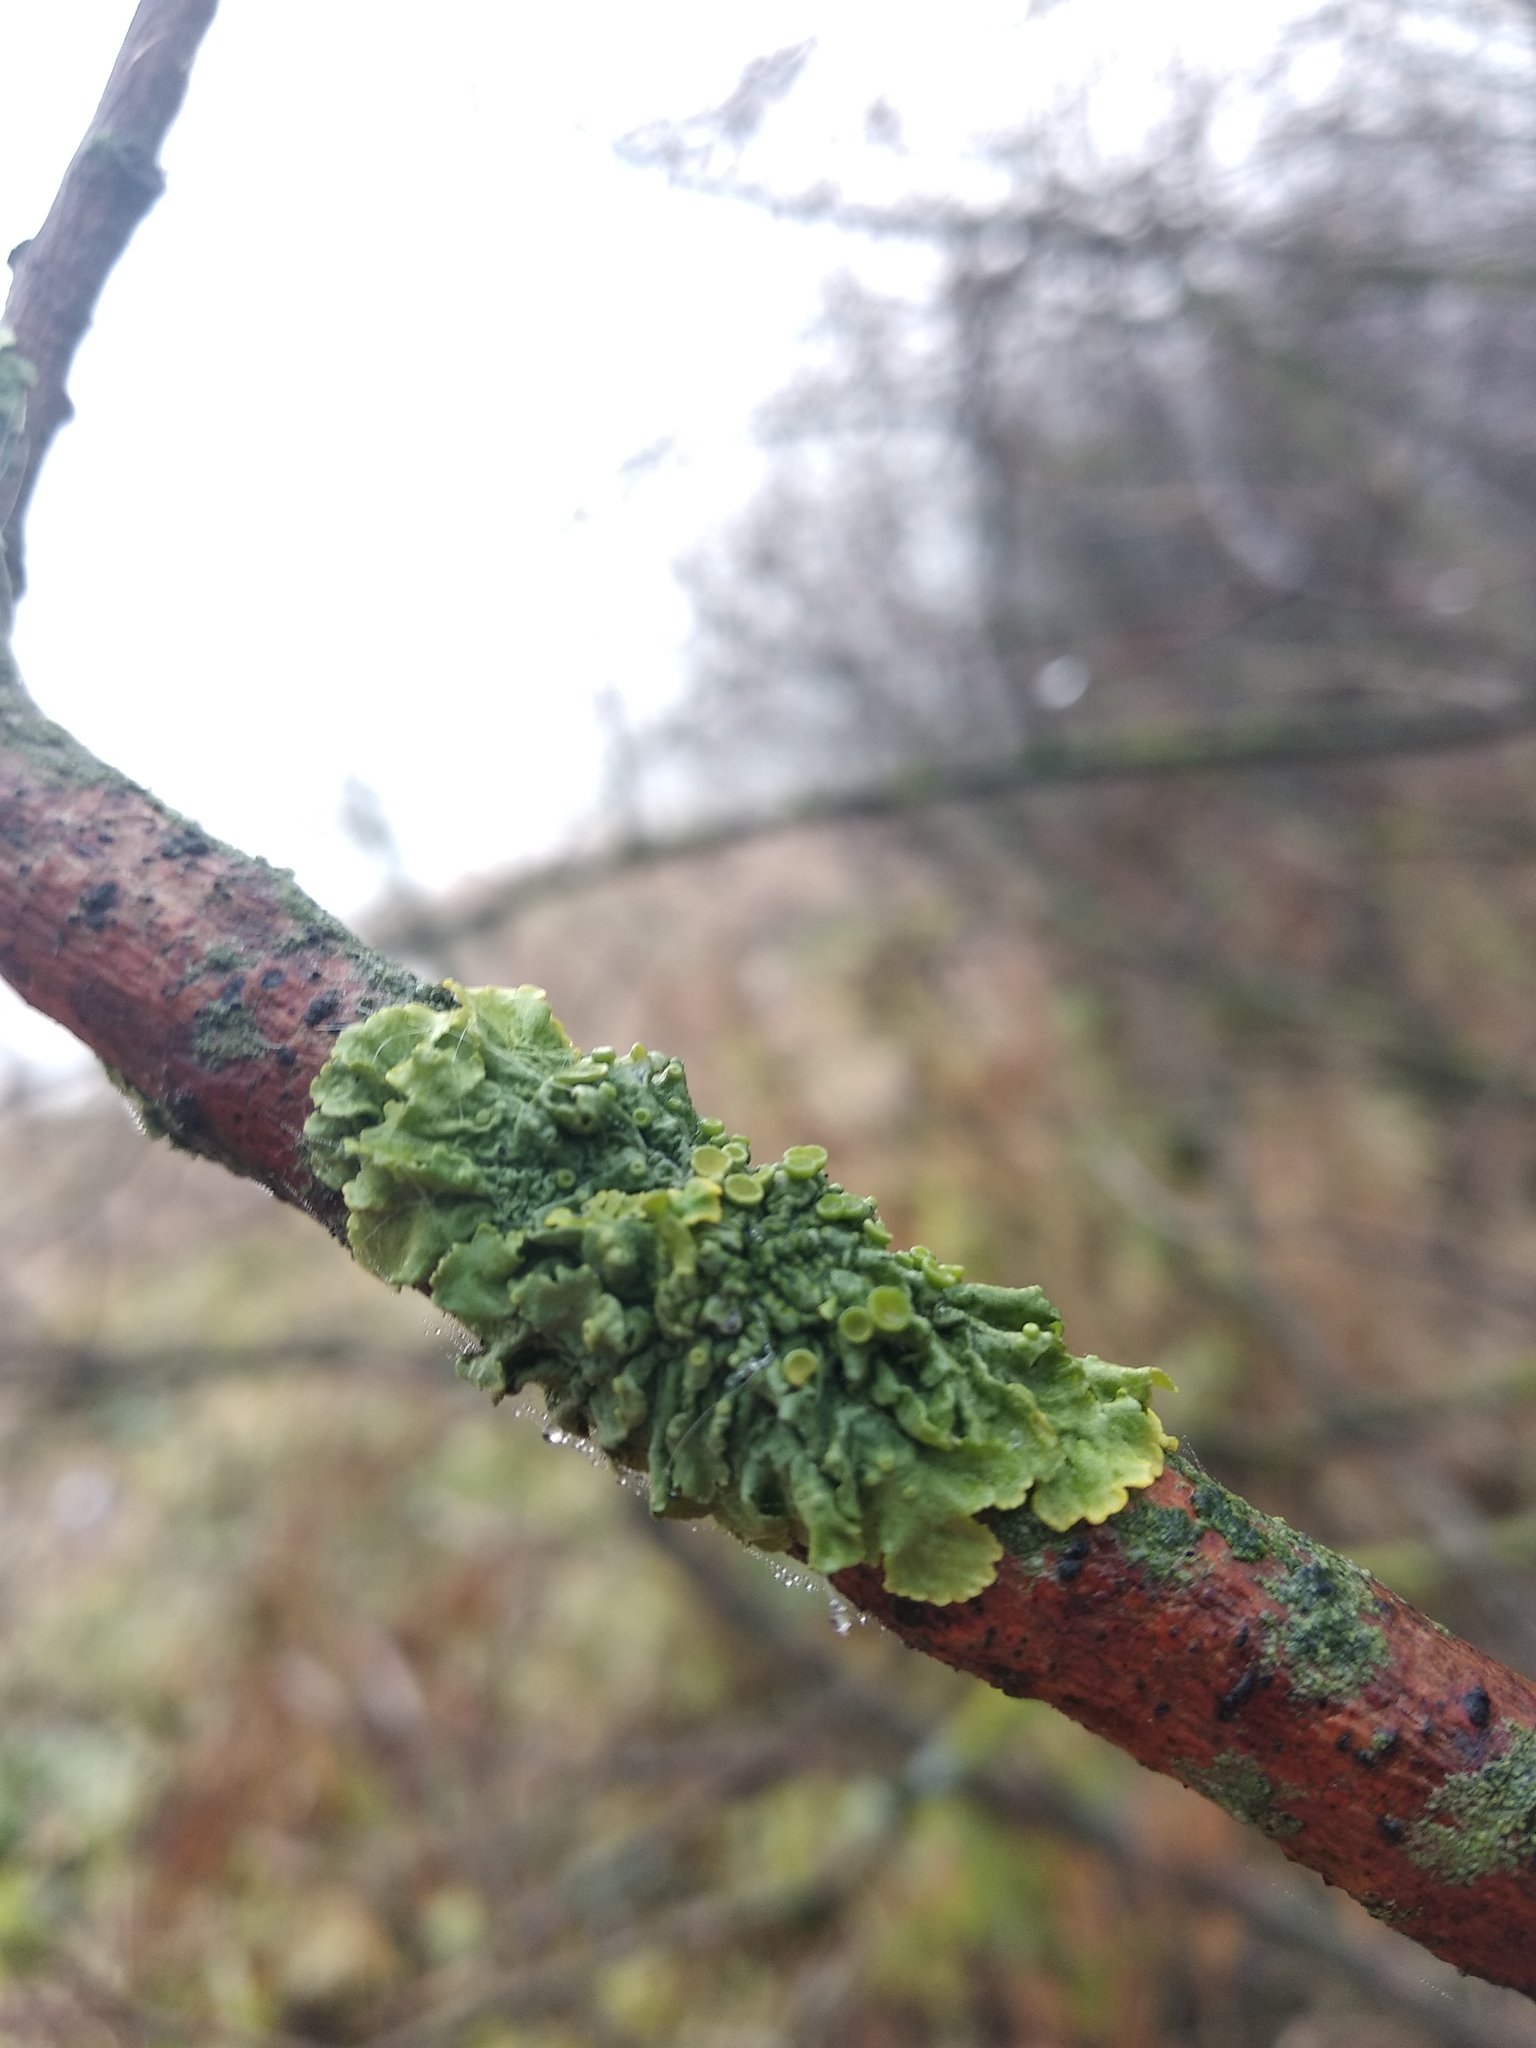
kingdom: Fungi
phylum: Ascomycota
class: Lecanoromycetes
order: Teloschistales
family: Teloschistaceae
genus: Xanthoria
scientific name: Xanthoria parietina
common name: Common orange lichen
